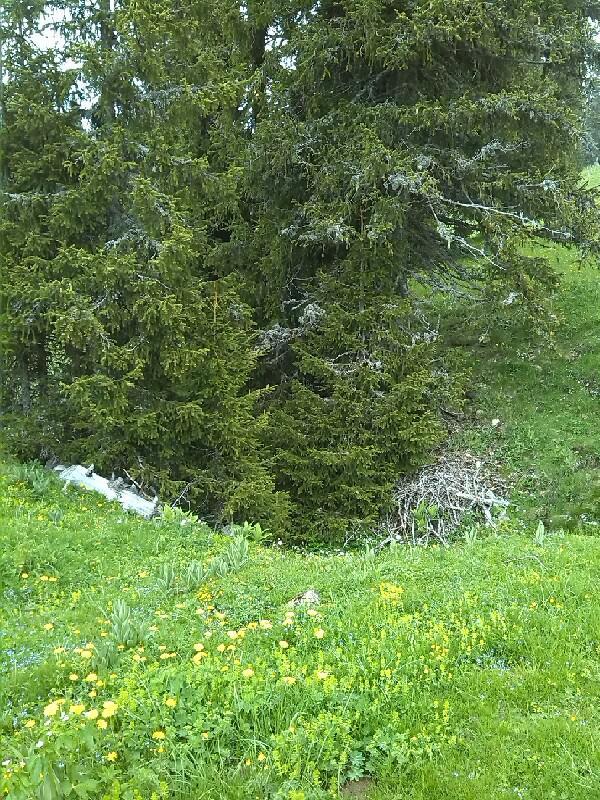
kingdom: Plantae
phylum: Tracheophyta
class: Pinopsida
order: Pinales
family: Pinaceae
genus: Picea
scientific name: Picea abies
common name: Norway spruce
